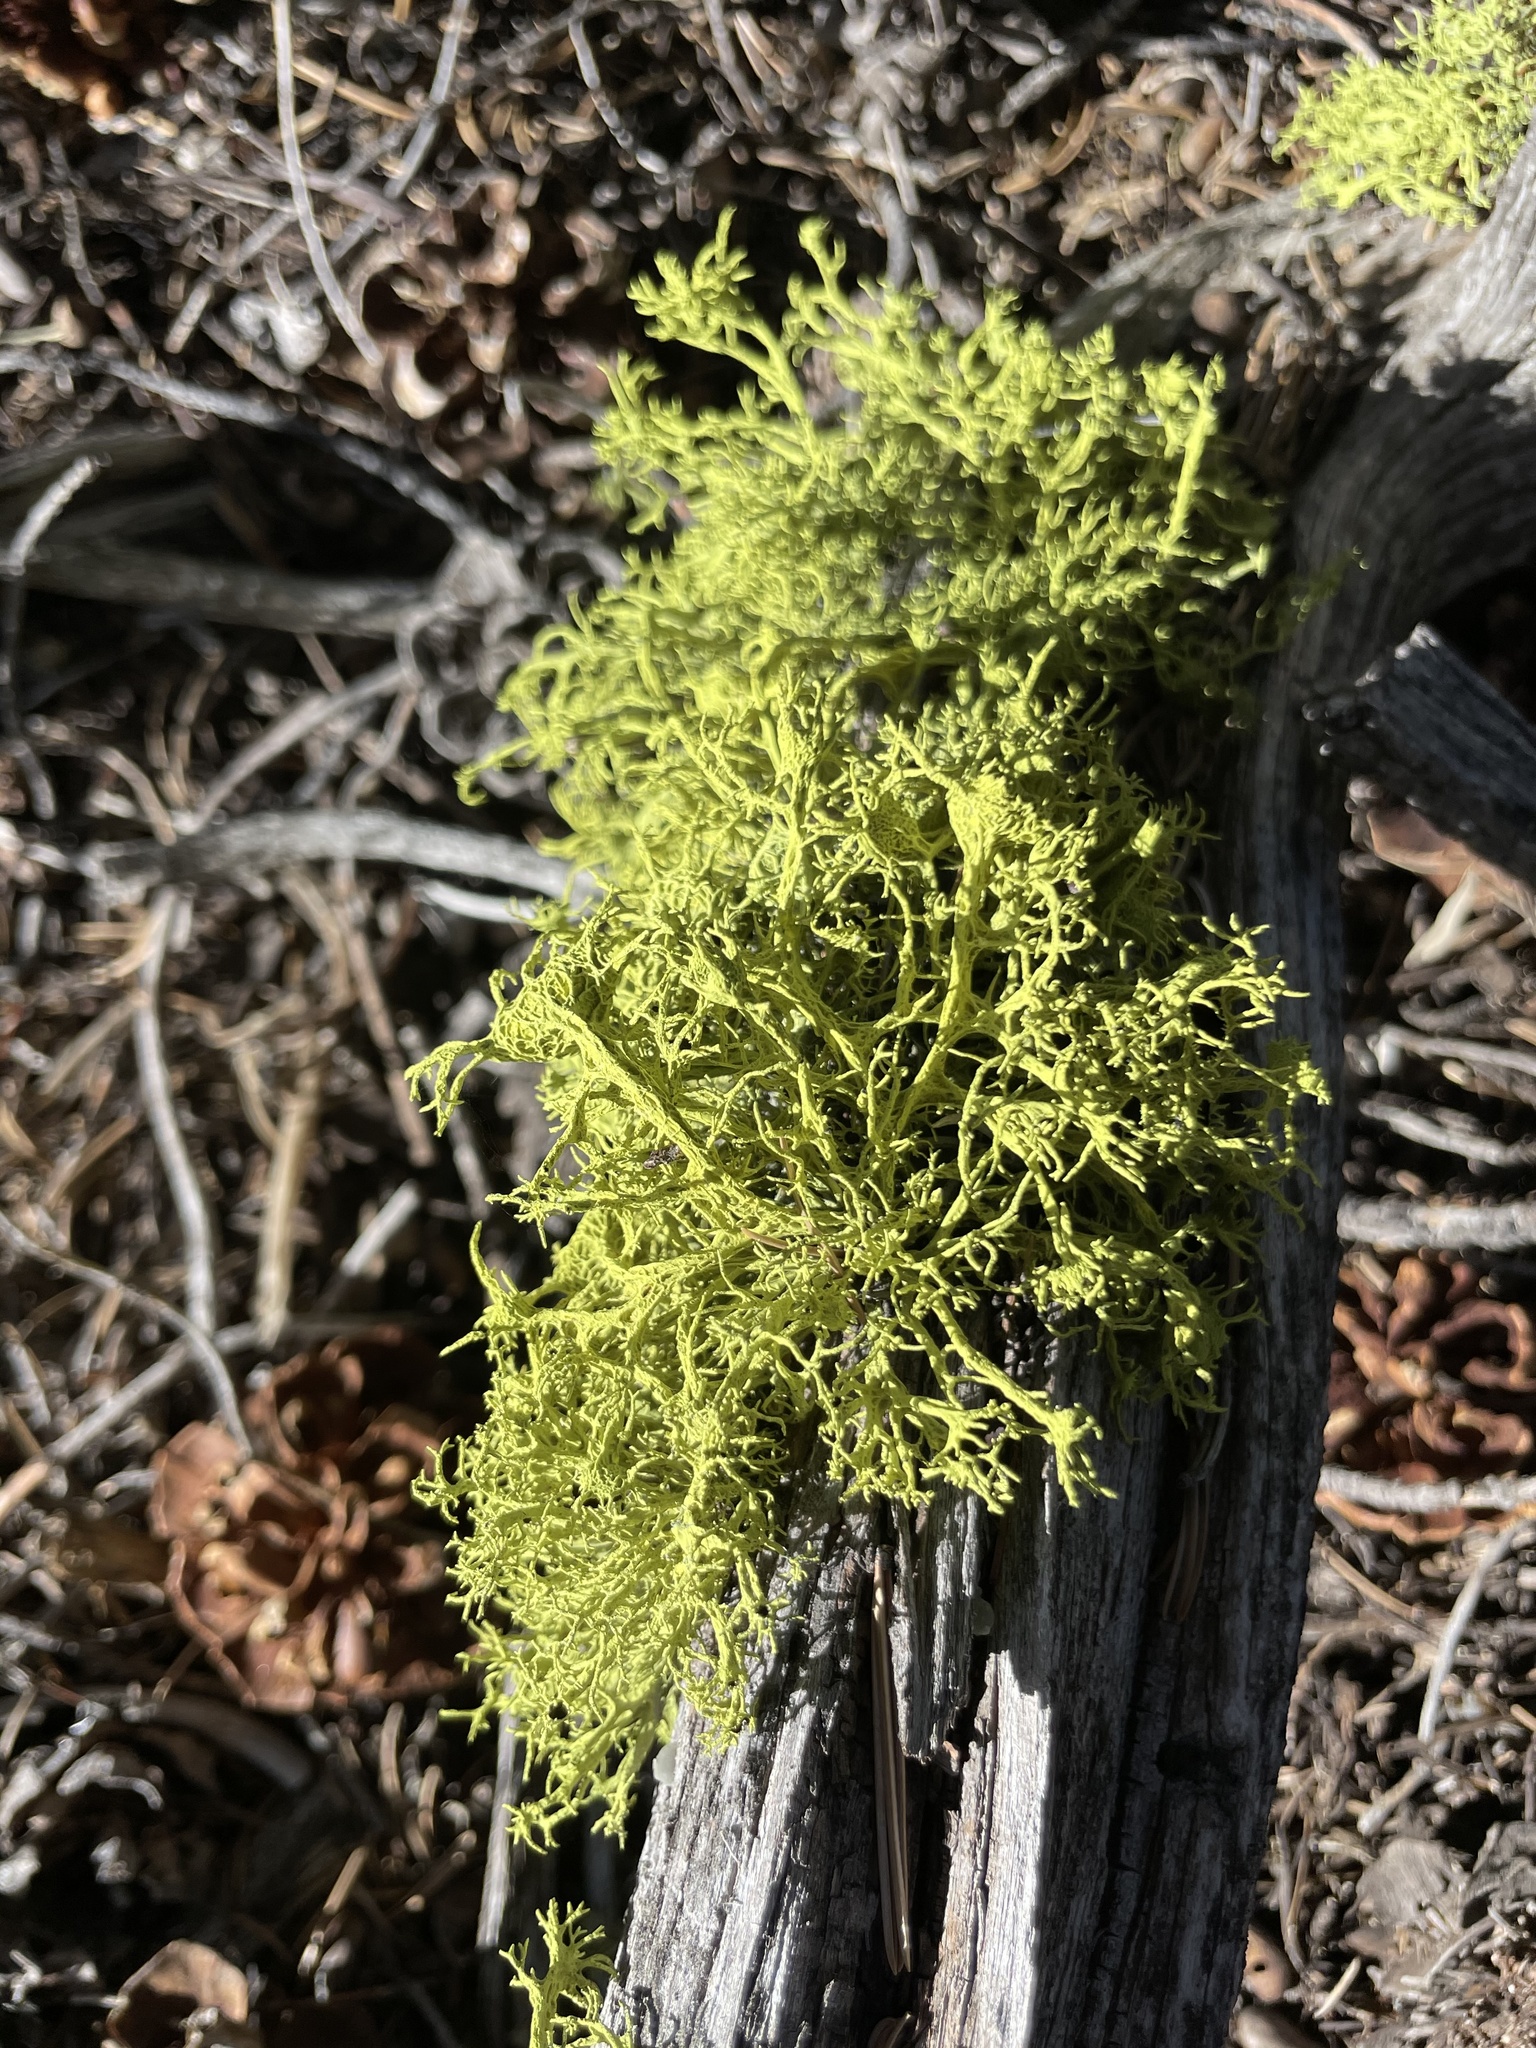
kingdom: Fungi
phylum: Ascomycota
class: Lecanoromycetes
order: Lecanorales
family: Parmeliaceae
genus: Letharia
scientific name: Letharia columbiana
